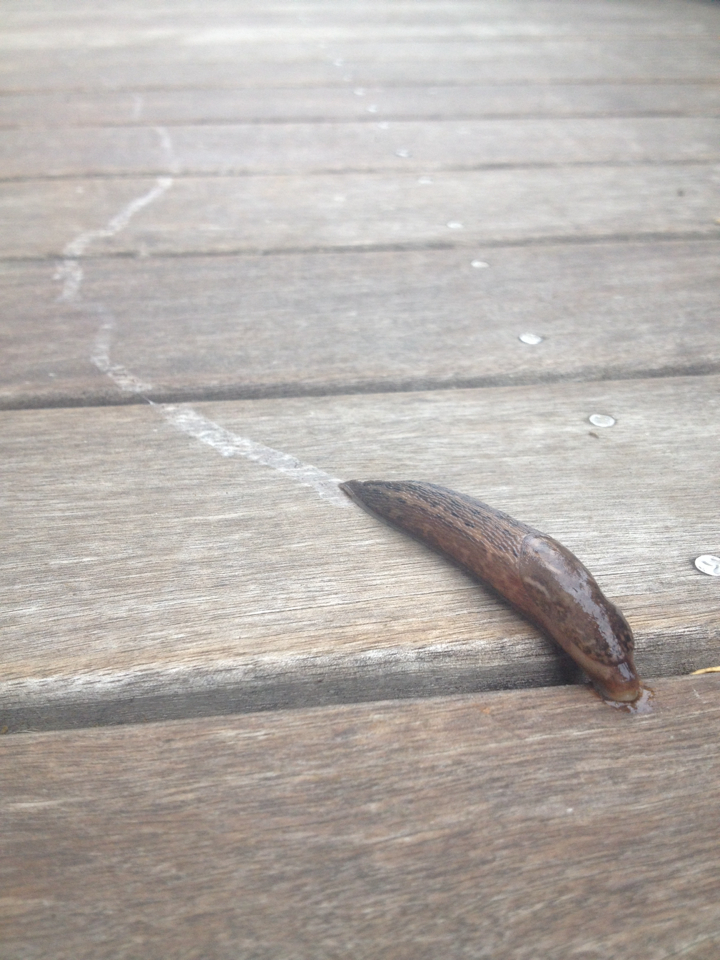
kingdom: Animalia
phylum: Mollusca
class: Gastropoda
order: Stylommatophora
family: Limacidae
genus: Limax
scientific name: Limax maximus
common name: Great grey slug
